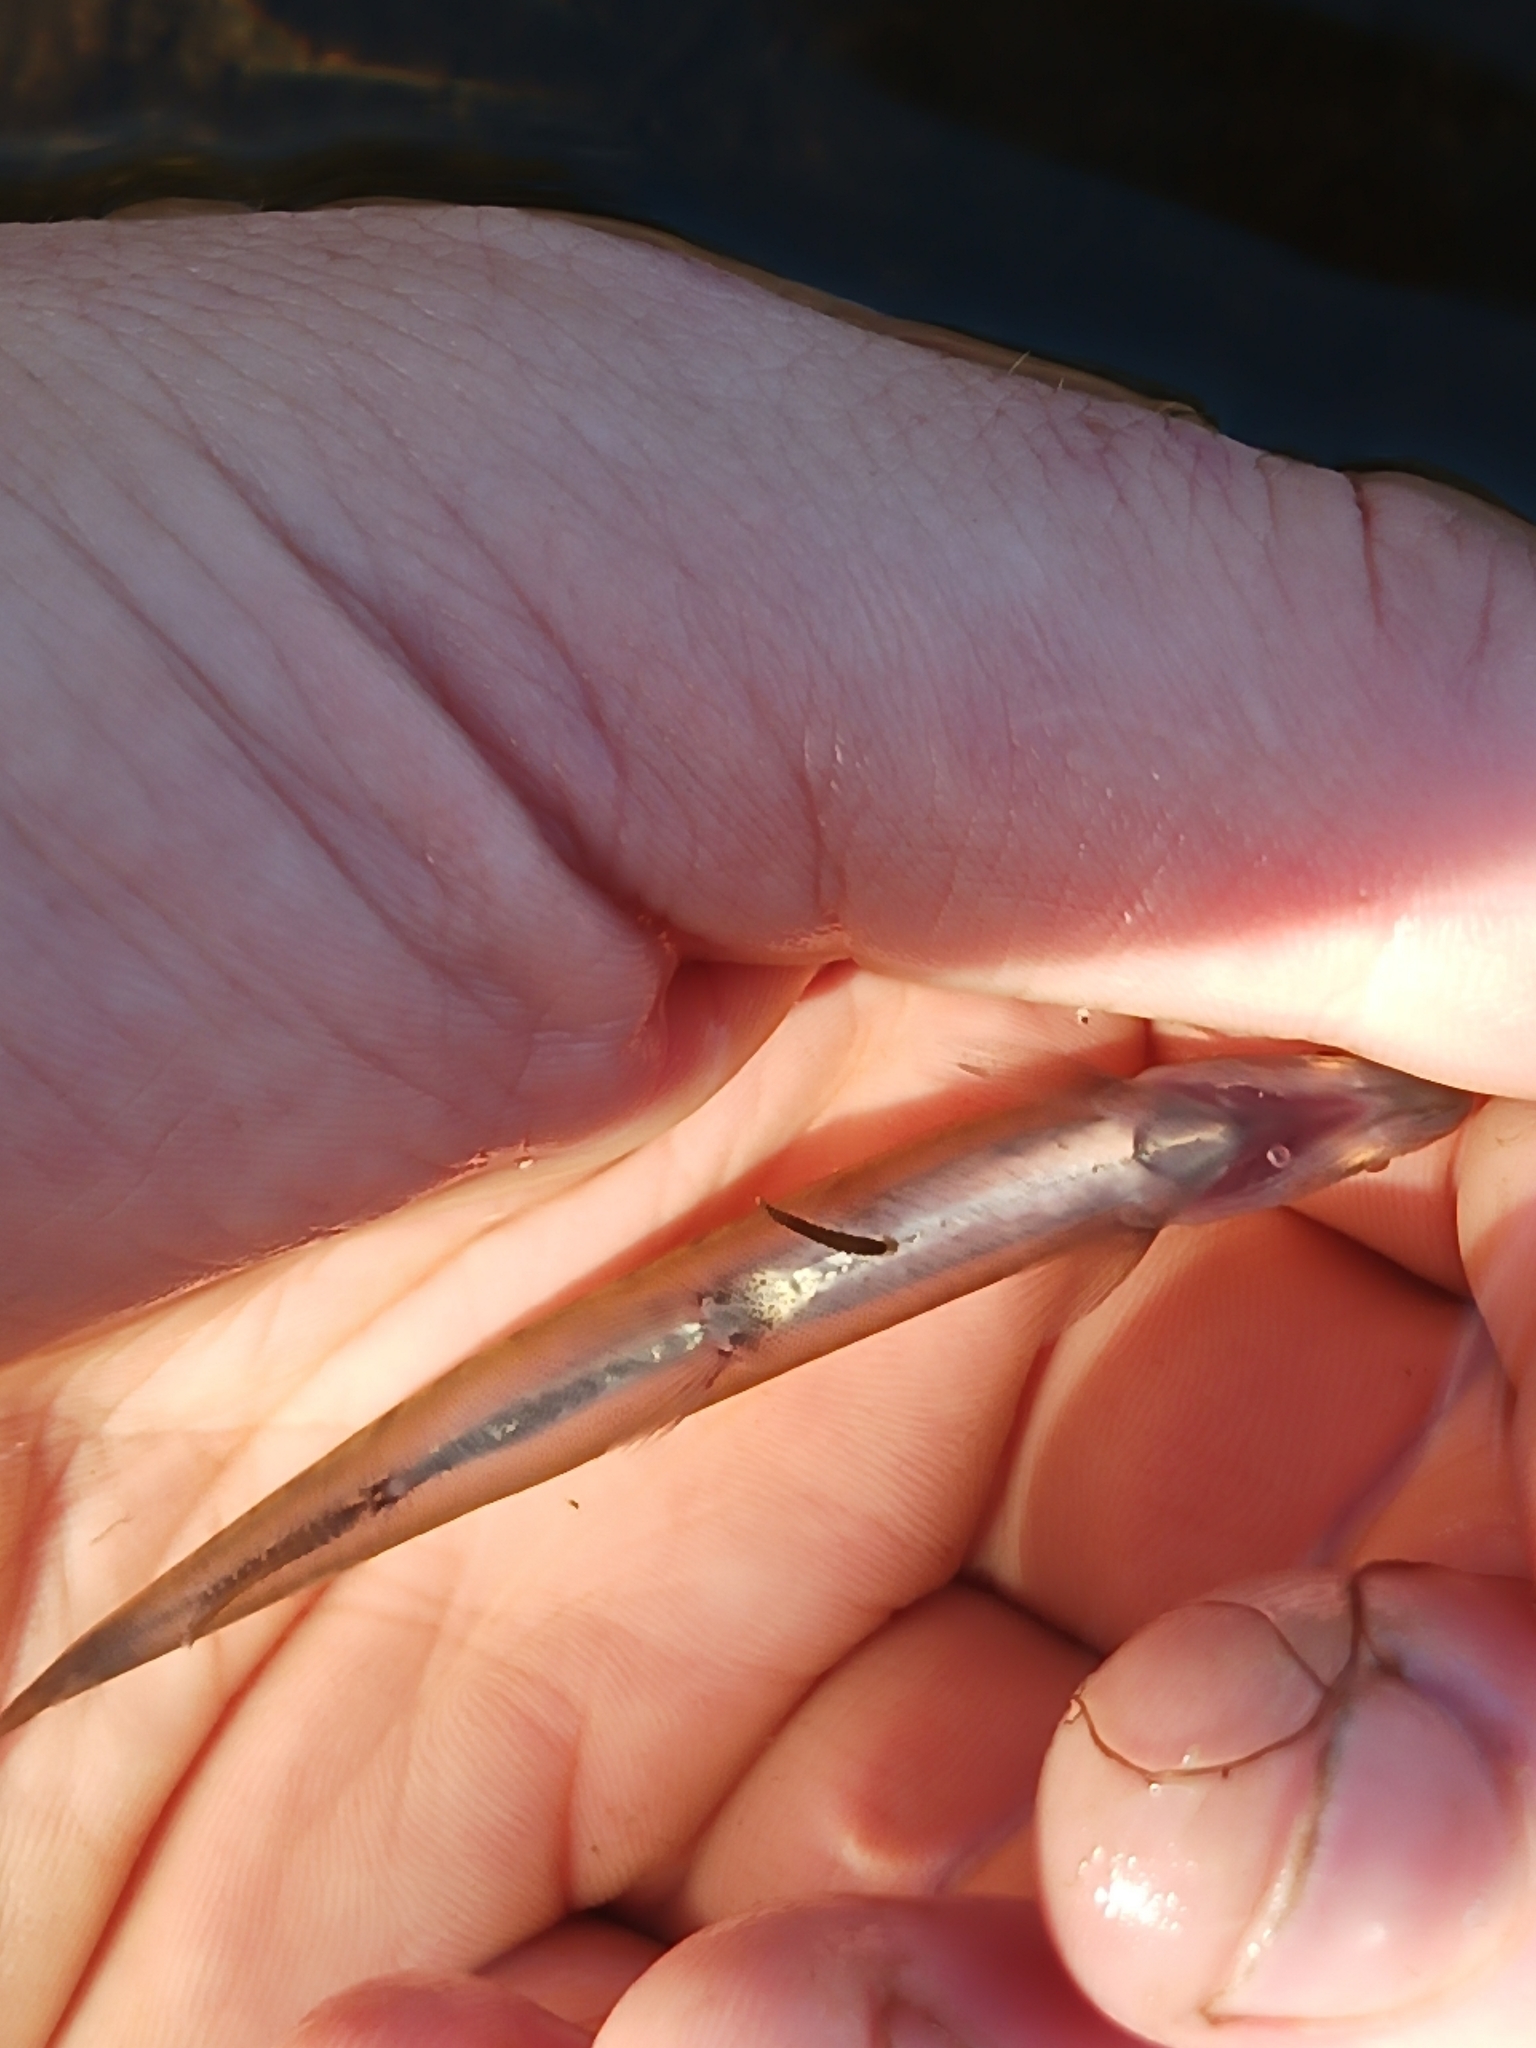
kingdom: Animalia
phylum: Chordata
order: Osmeriformes
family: Galaxiidae
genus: Galaxias
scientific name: Galaxias occidentalis
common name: Western minnow
